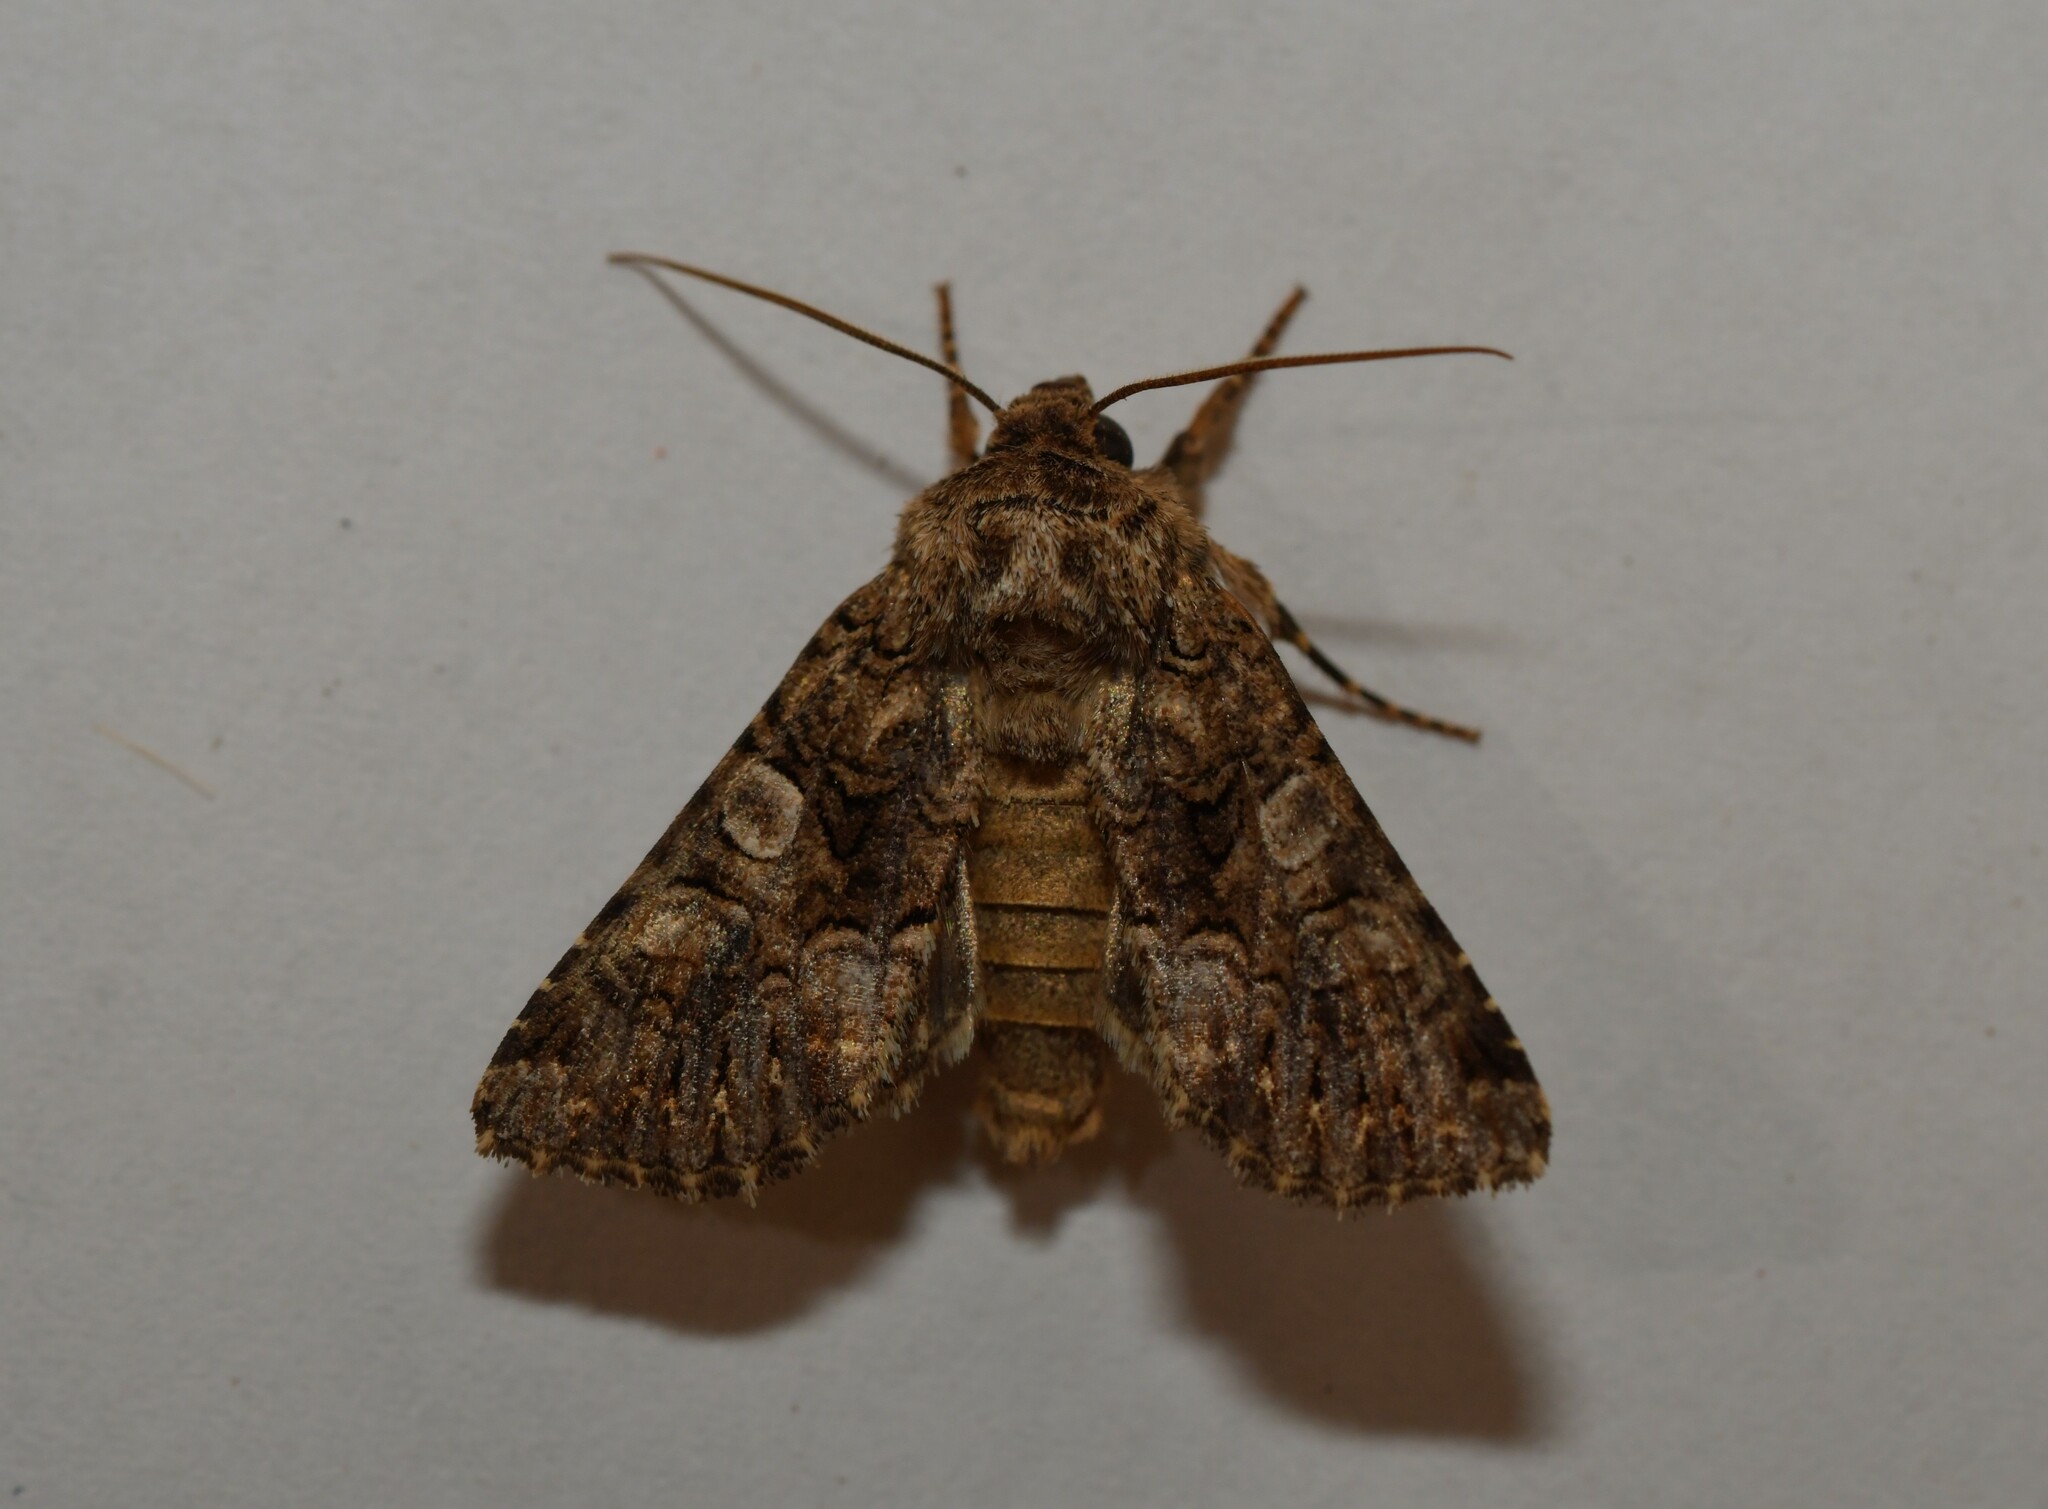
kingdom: Animalia
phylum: Arthropoda
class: Insecta
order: Lepidoptera
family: Noctuidae
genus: Hadena
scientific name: Hadena sancta
